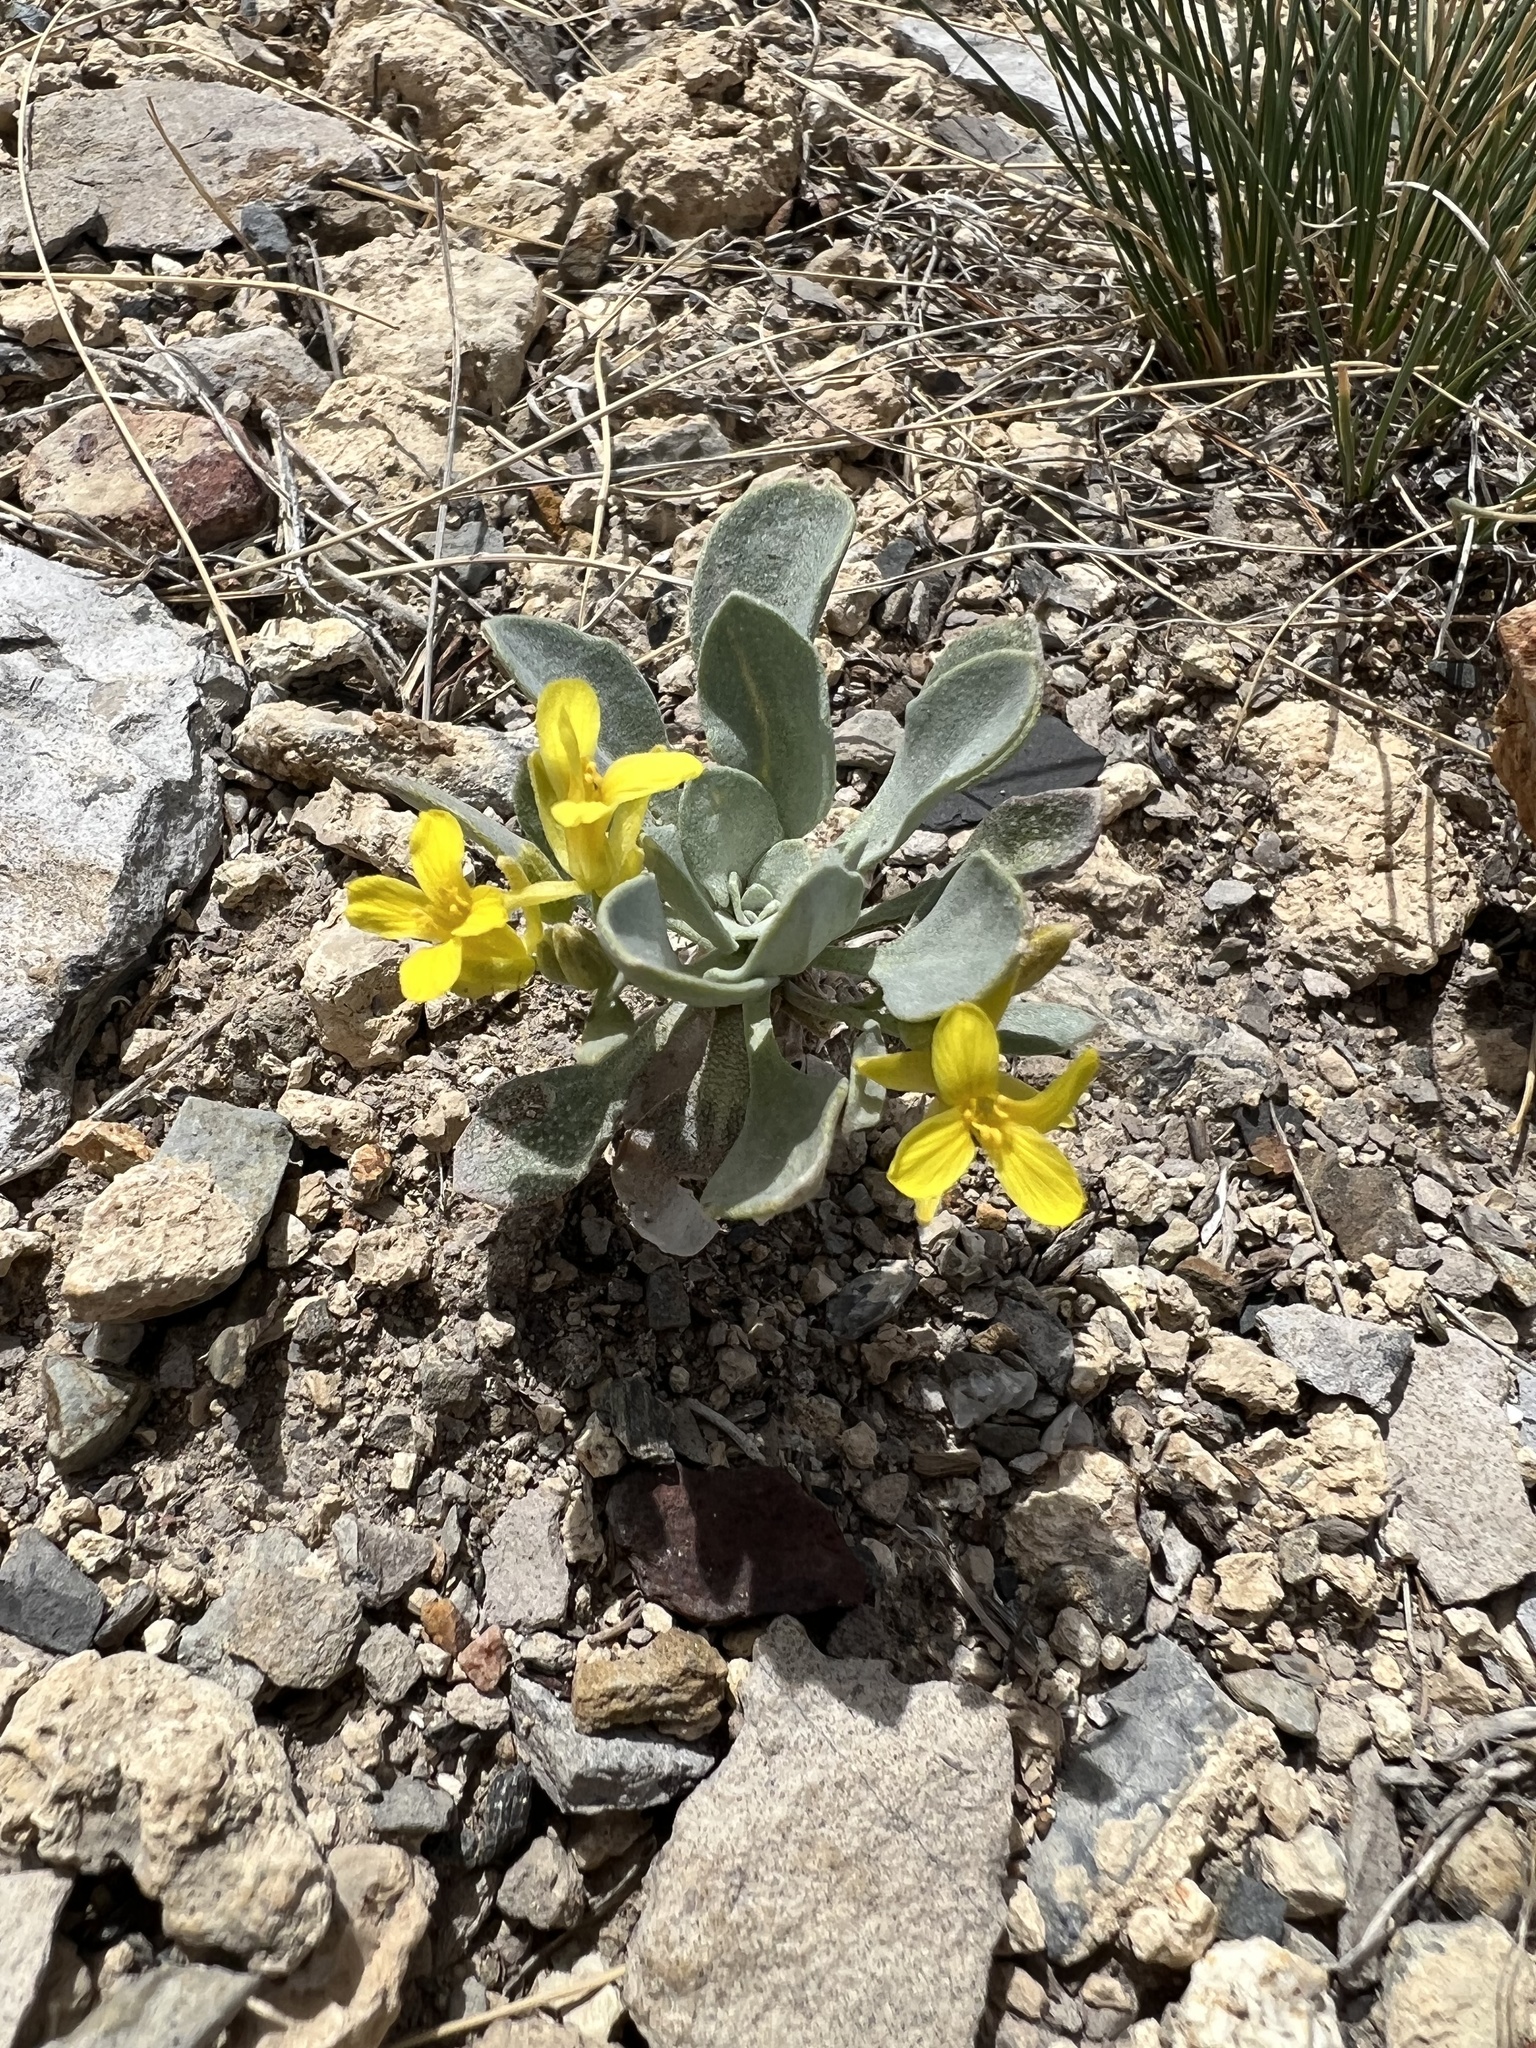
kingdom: Plantae
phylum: Tracheophyta
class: Magnoliopsida
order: Brassicales
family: Brassicaceae
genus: Physaria
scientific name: Physaria bellii
